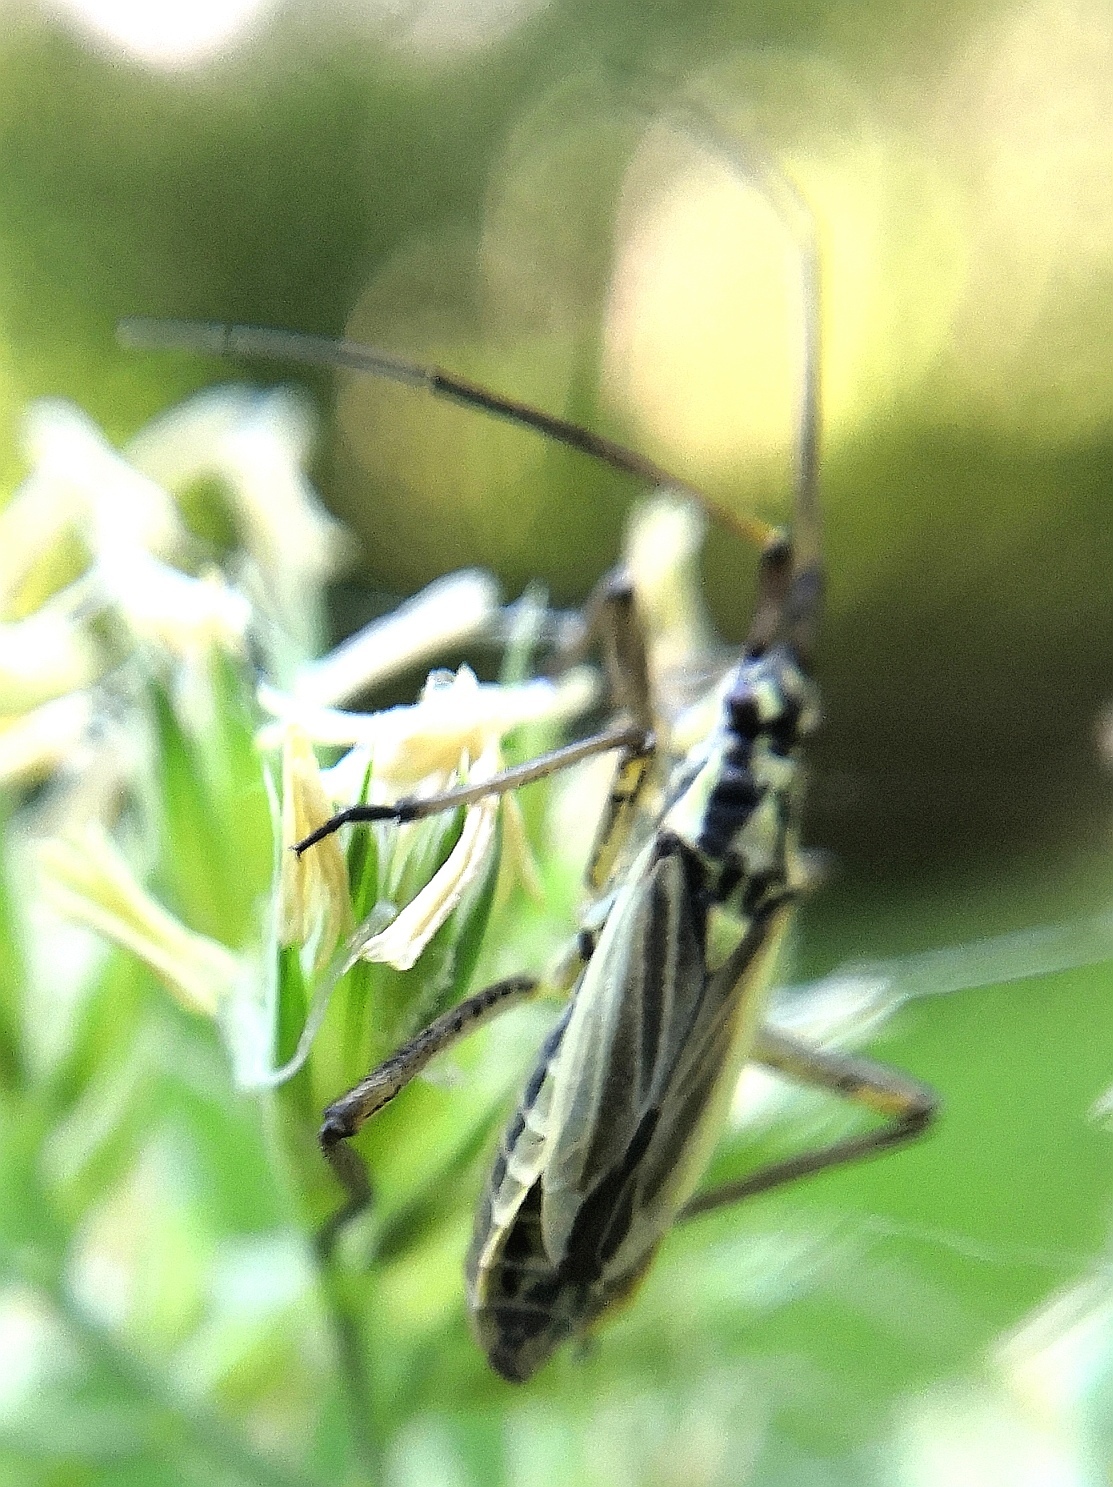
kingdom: Animalia
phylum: Arthropoda
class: Insecta
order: Hemiptera
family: Miridae
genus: Leptopterna
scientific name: Leptopterna dolabrata
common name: Meadow plant bug
